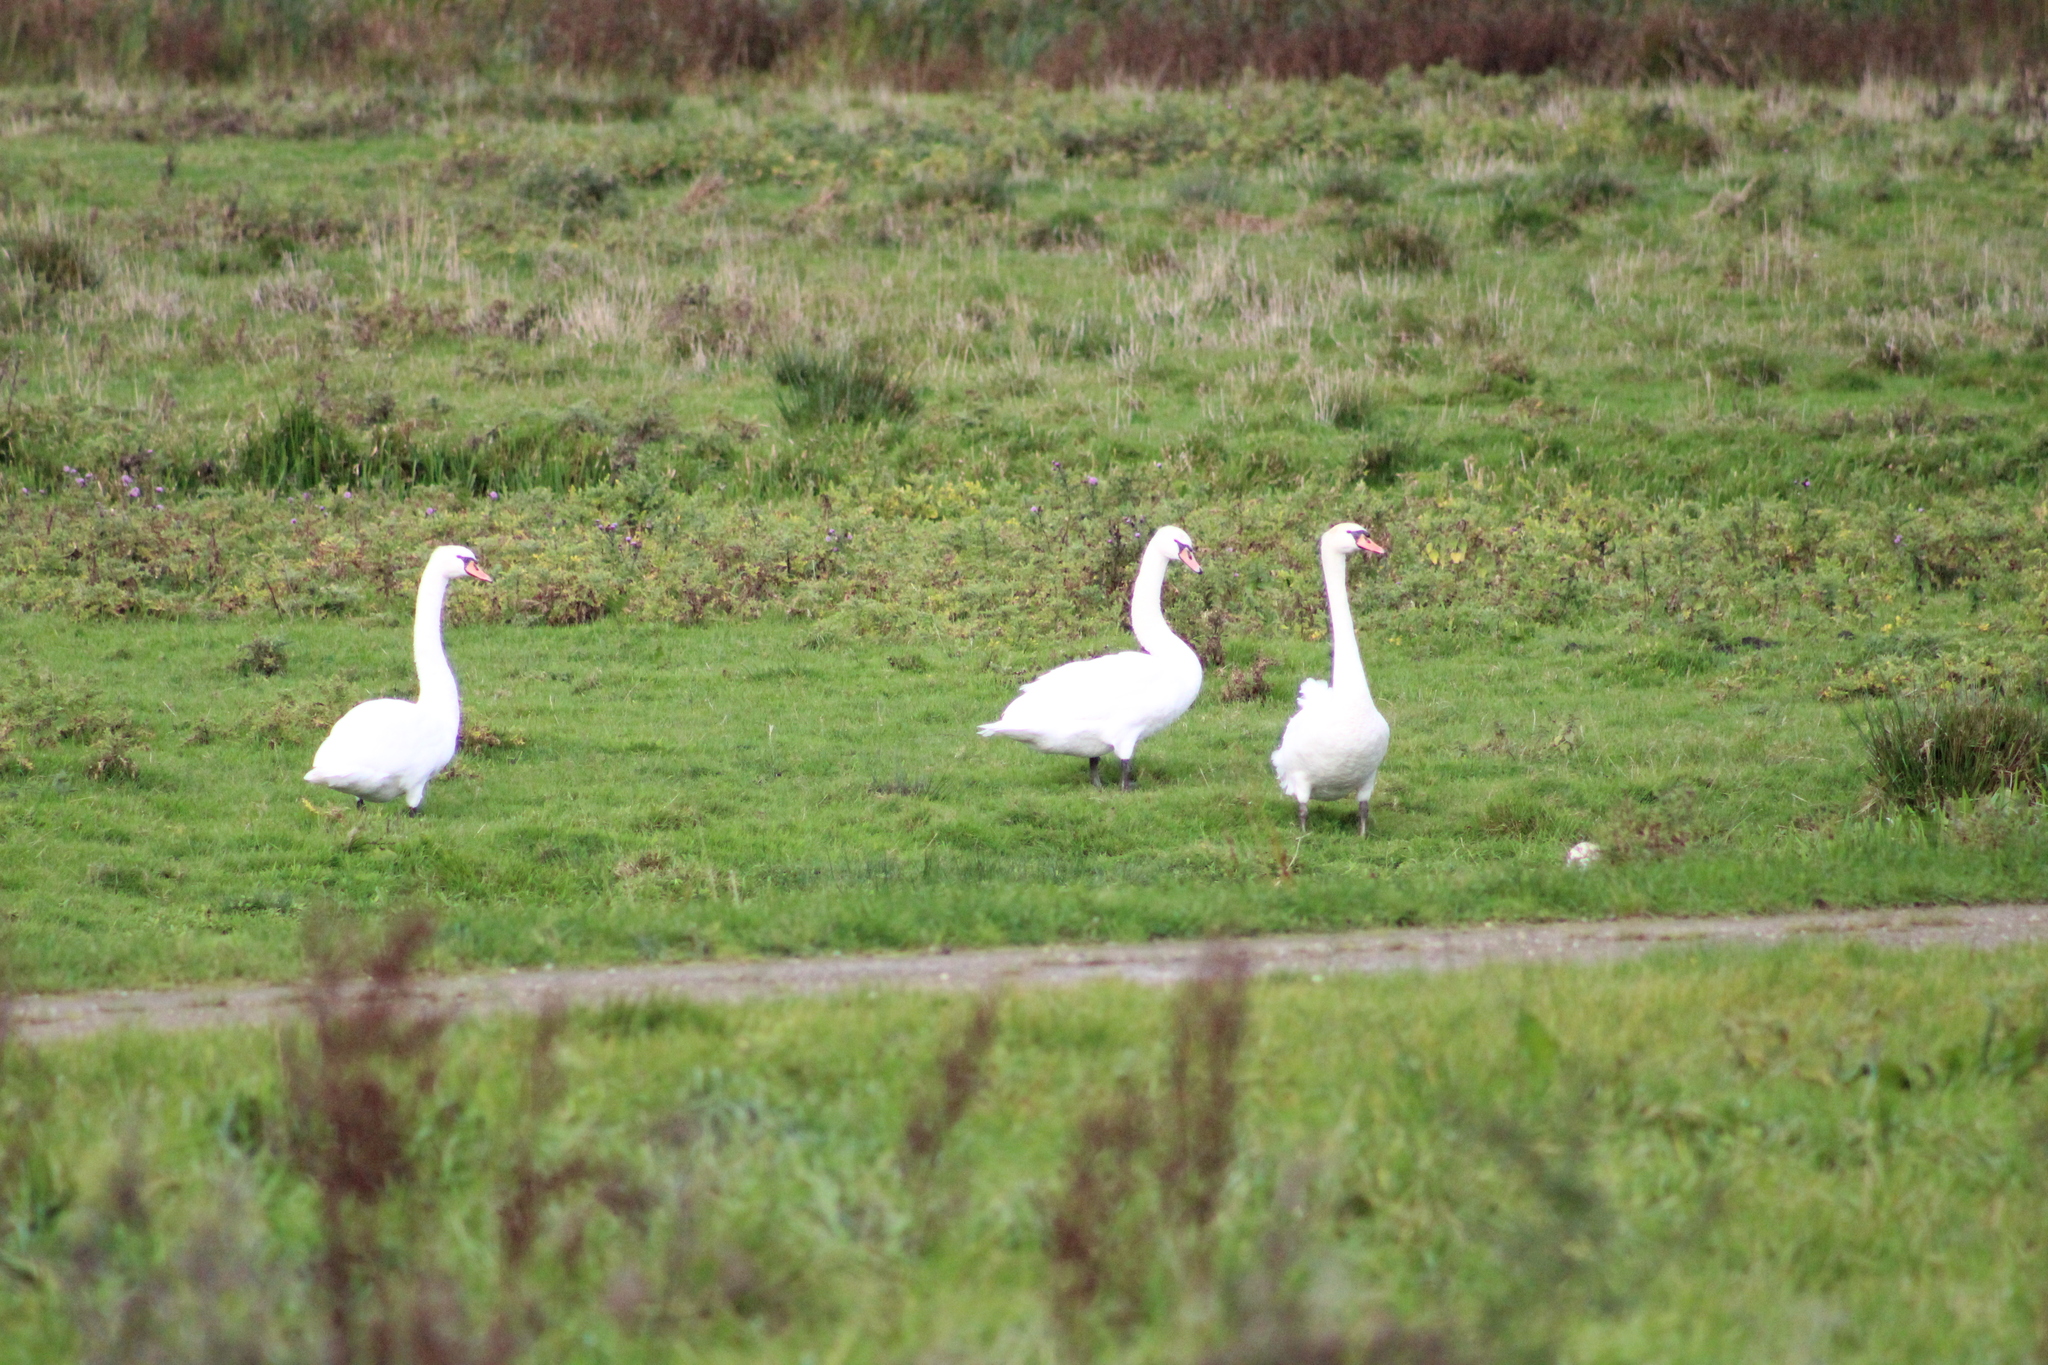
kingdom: Animalia
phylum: Chordata
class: Aves
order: Anseriformes
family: Anatidae
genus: Cygnus
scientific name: Cygnus olor
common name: Mute swan
